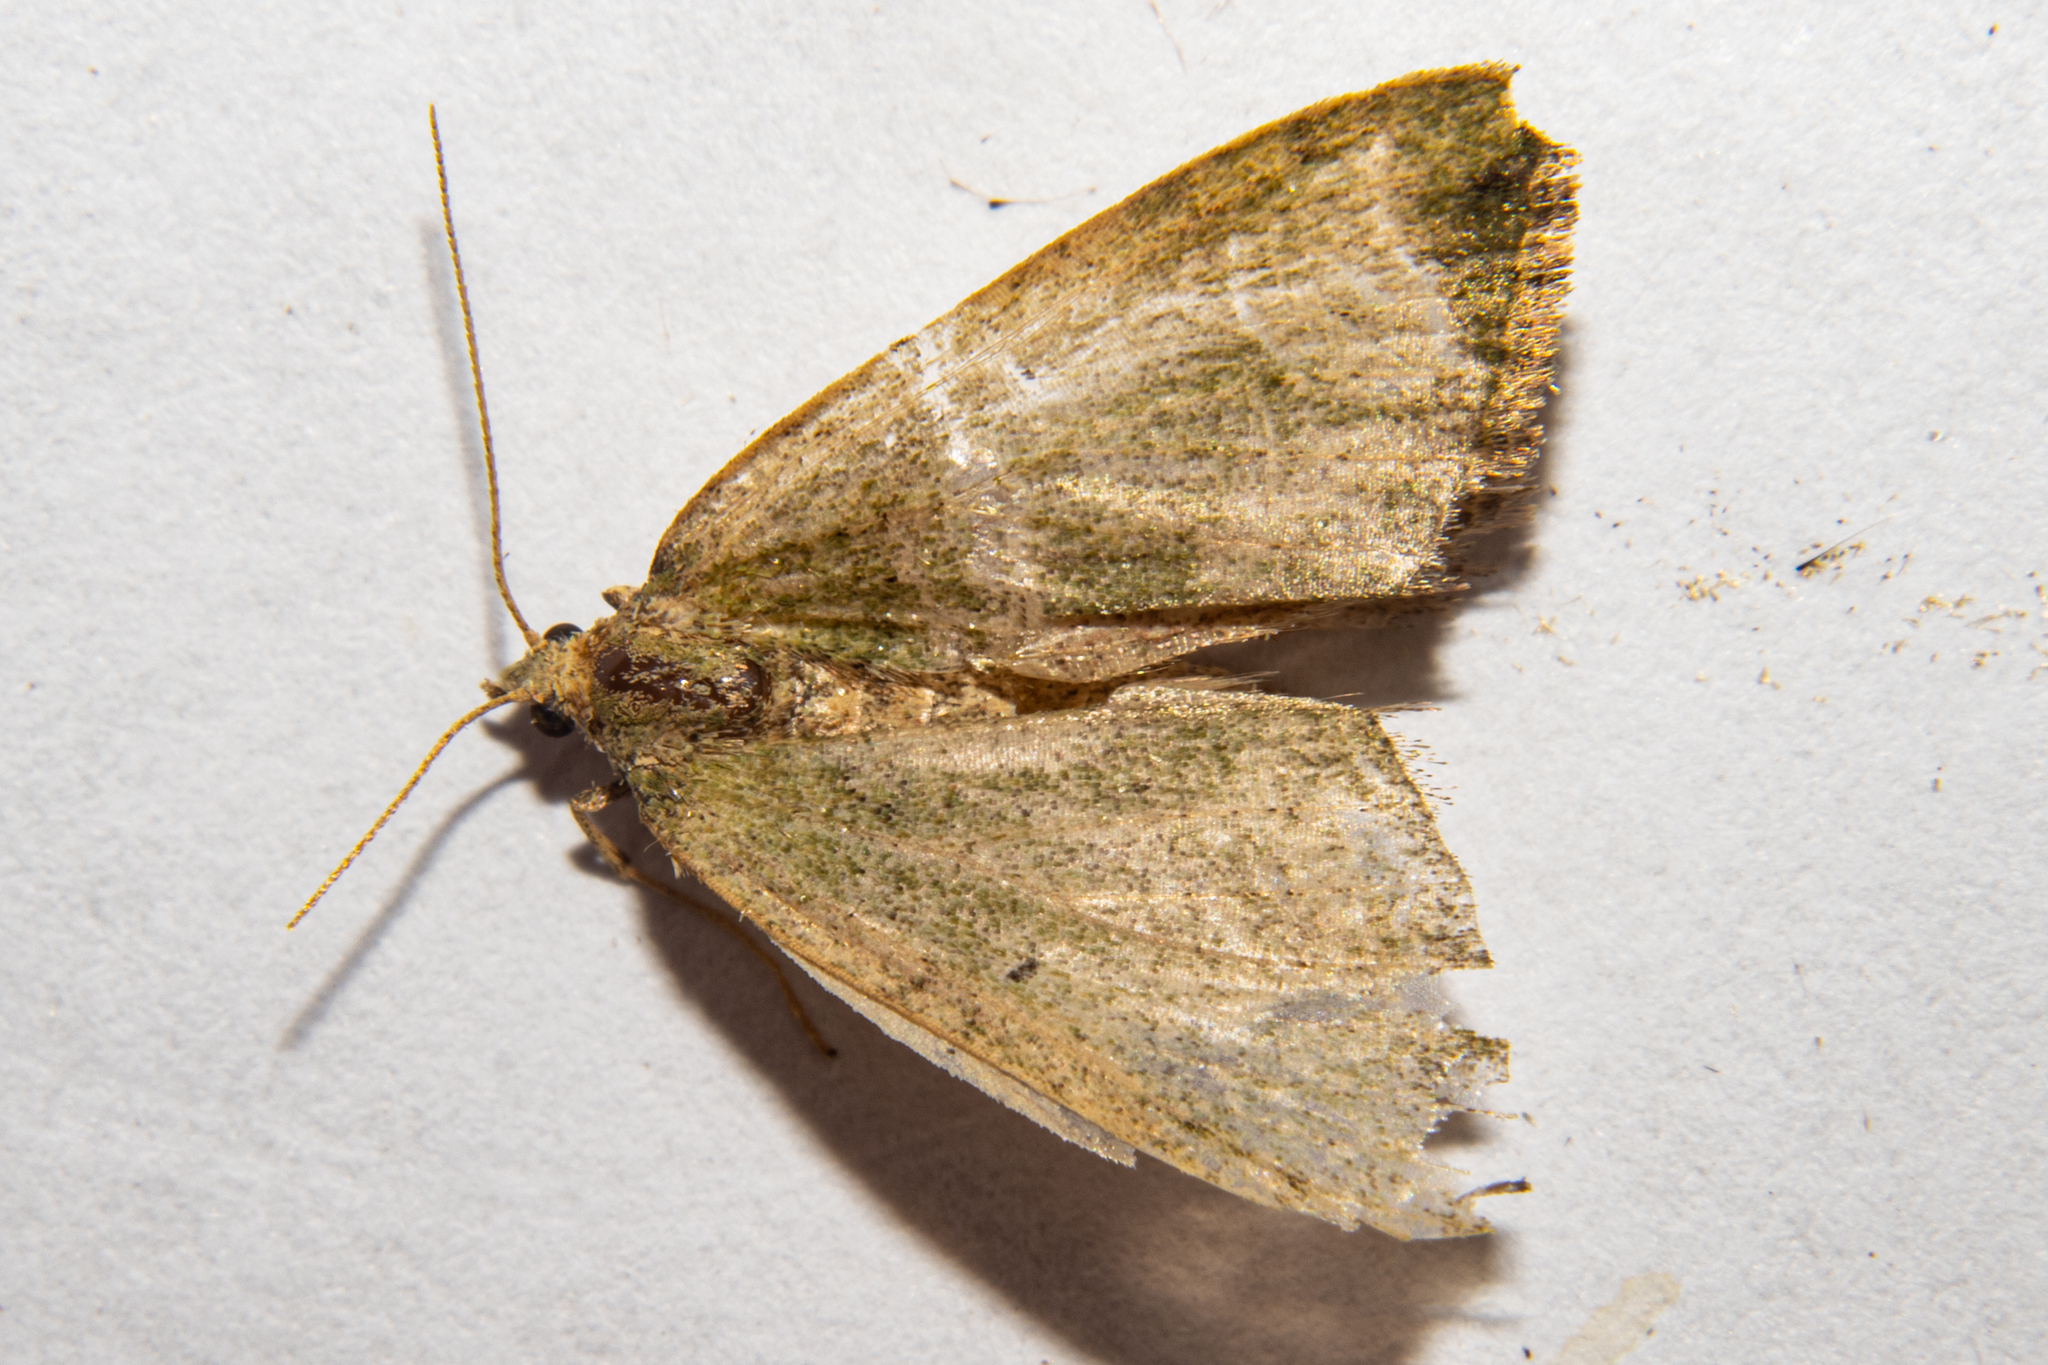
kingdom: Animalia
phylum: Arthropoda
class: Insecta
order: Lepidoptera
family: Geometridae
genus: Epyaxa
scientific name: Epyaxa rosearia
